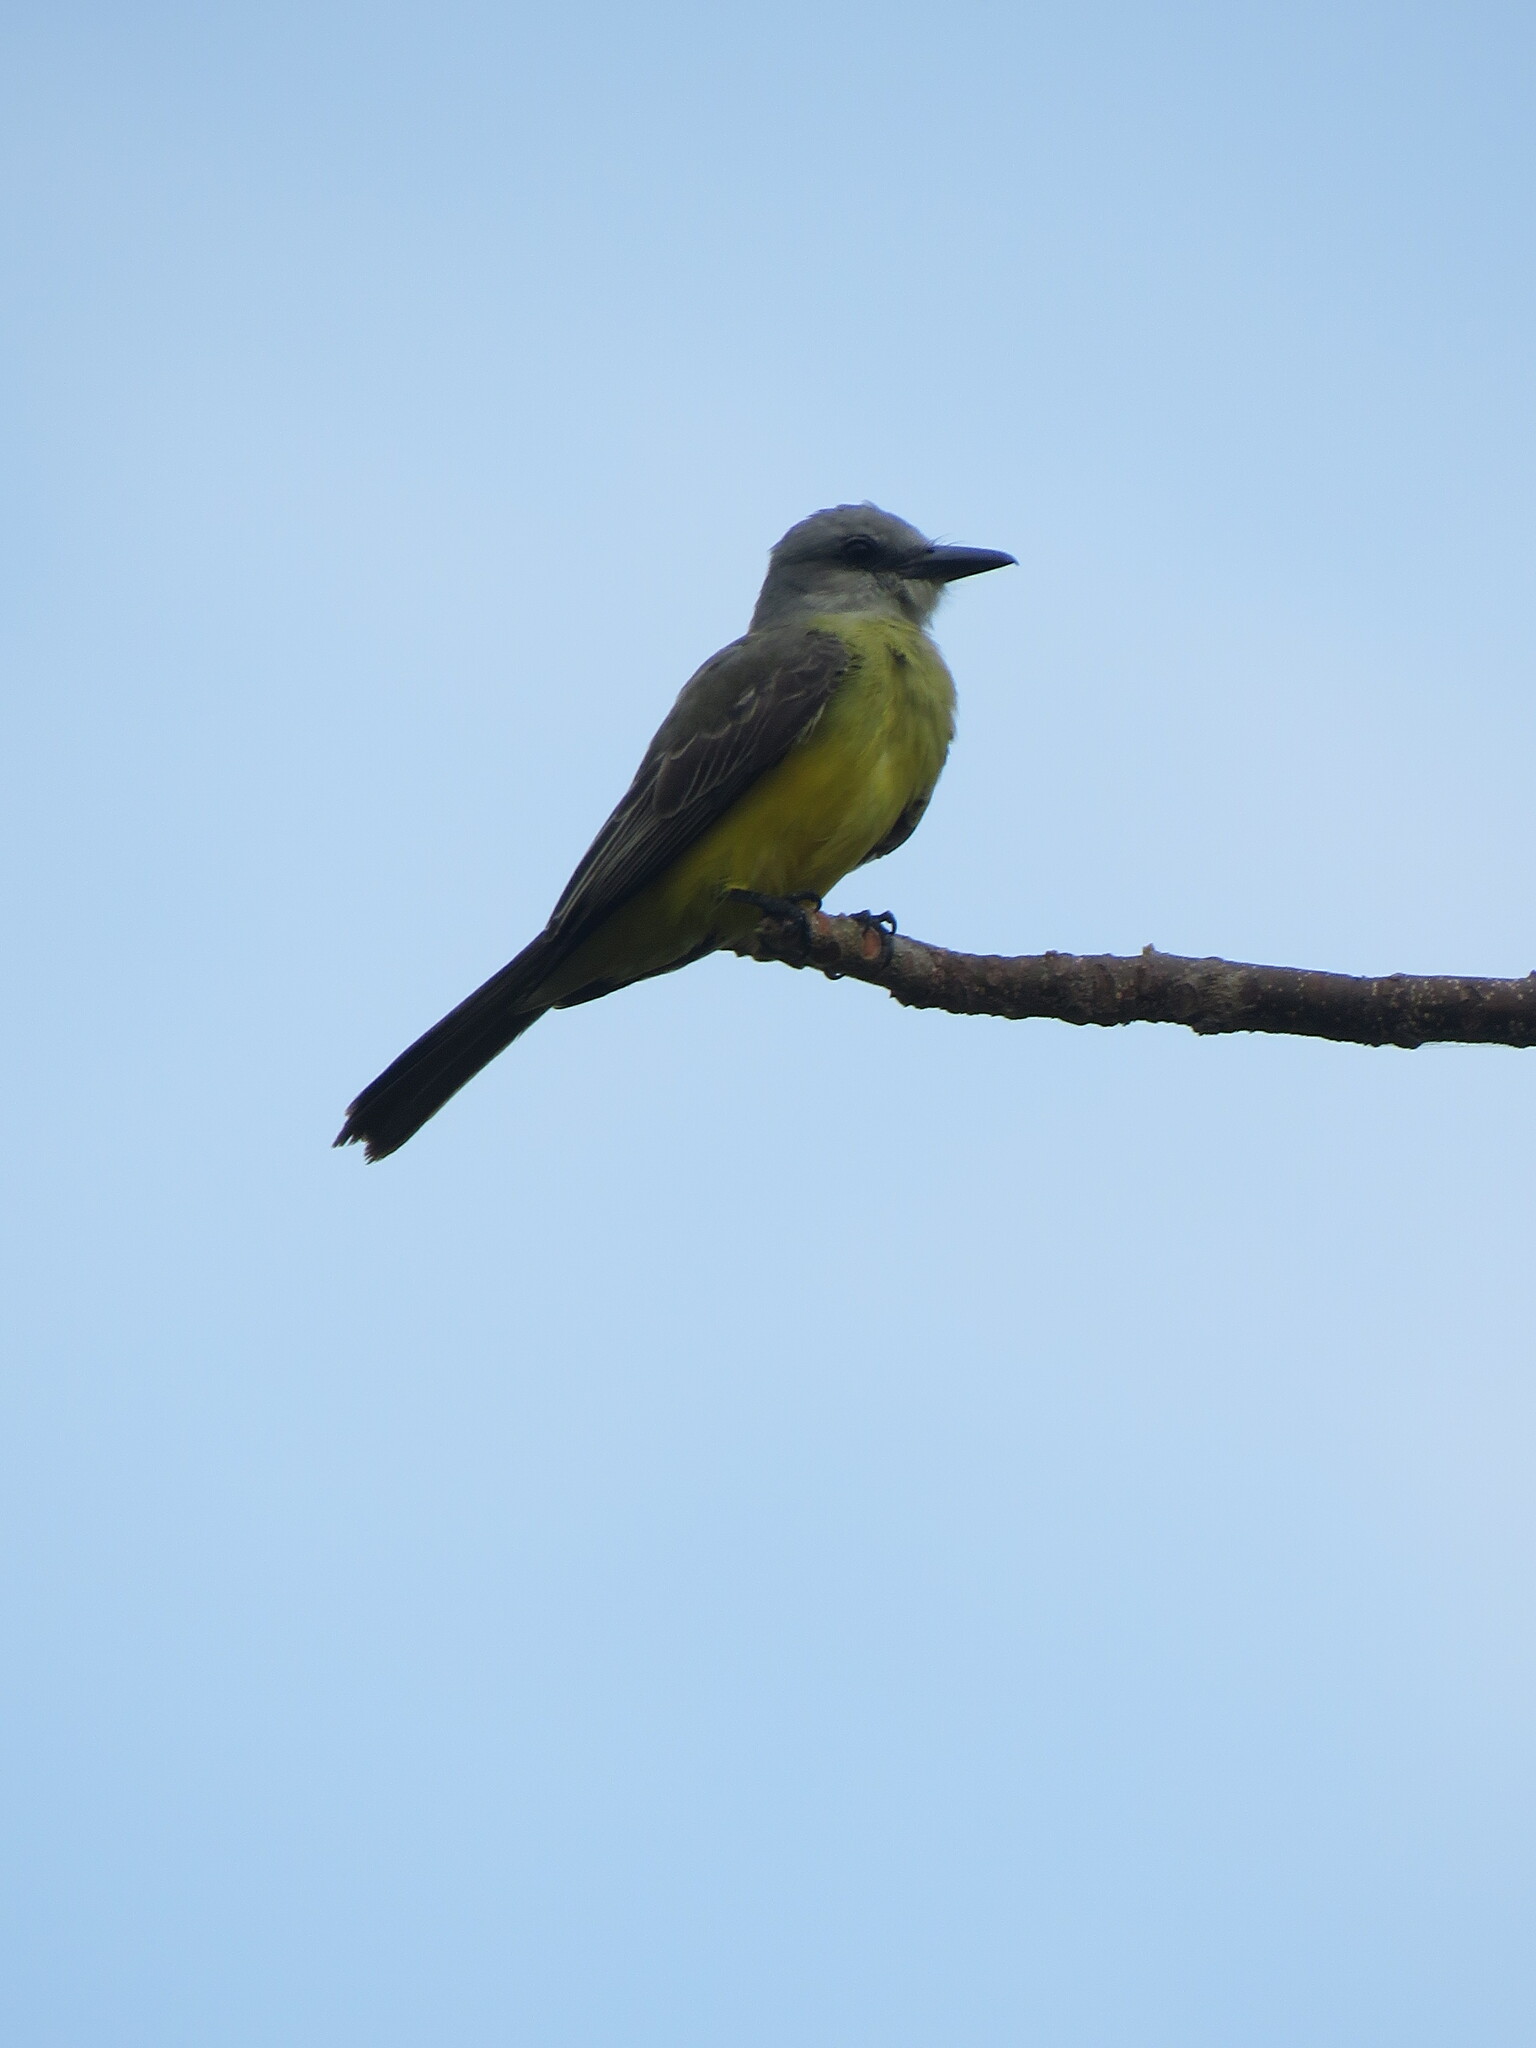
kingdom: Animalia
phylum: Chordata
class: Aves
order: Passeriformes
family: Tyrannidae
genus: Tyrannus
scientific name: Tyrannus melancholicus
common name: Tropical kingbird
